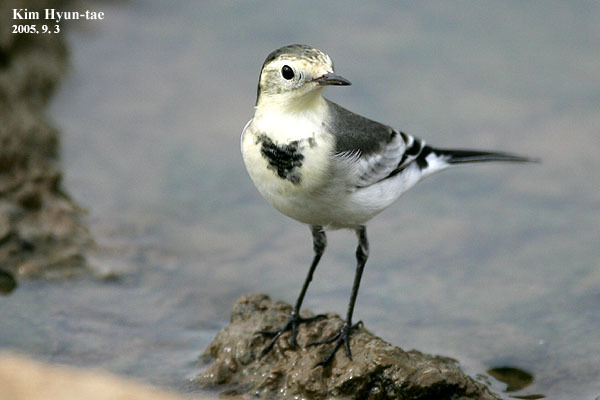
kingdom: Animalia
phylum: Chordata
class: Aves
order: Passeriformes
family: Motacillidae
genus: Motacilla
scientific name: Motacilla alba
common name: White wagtail
